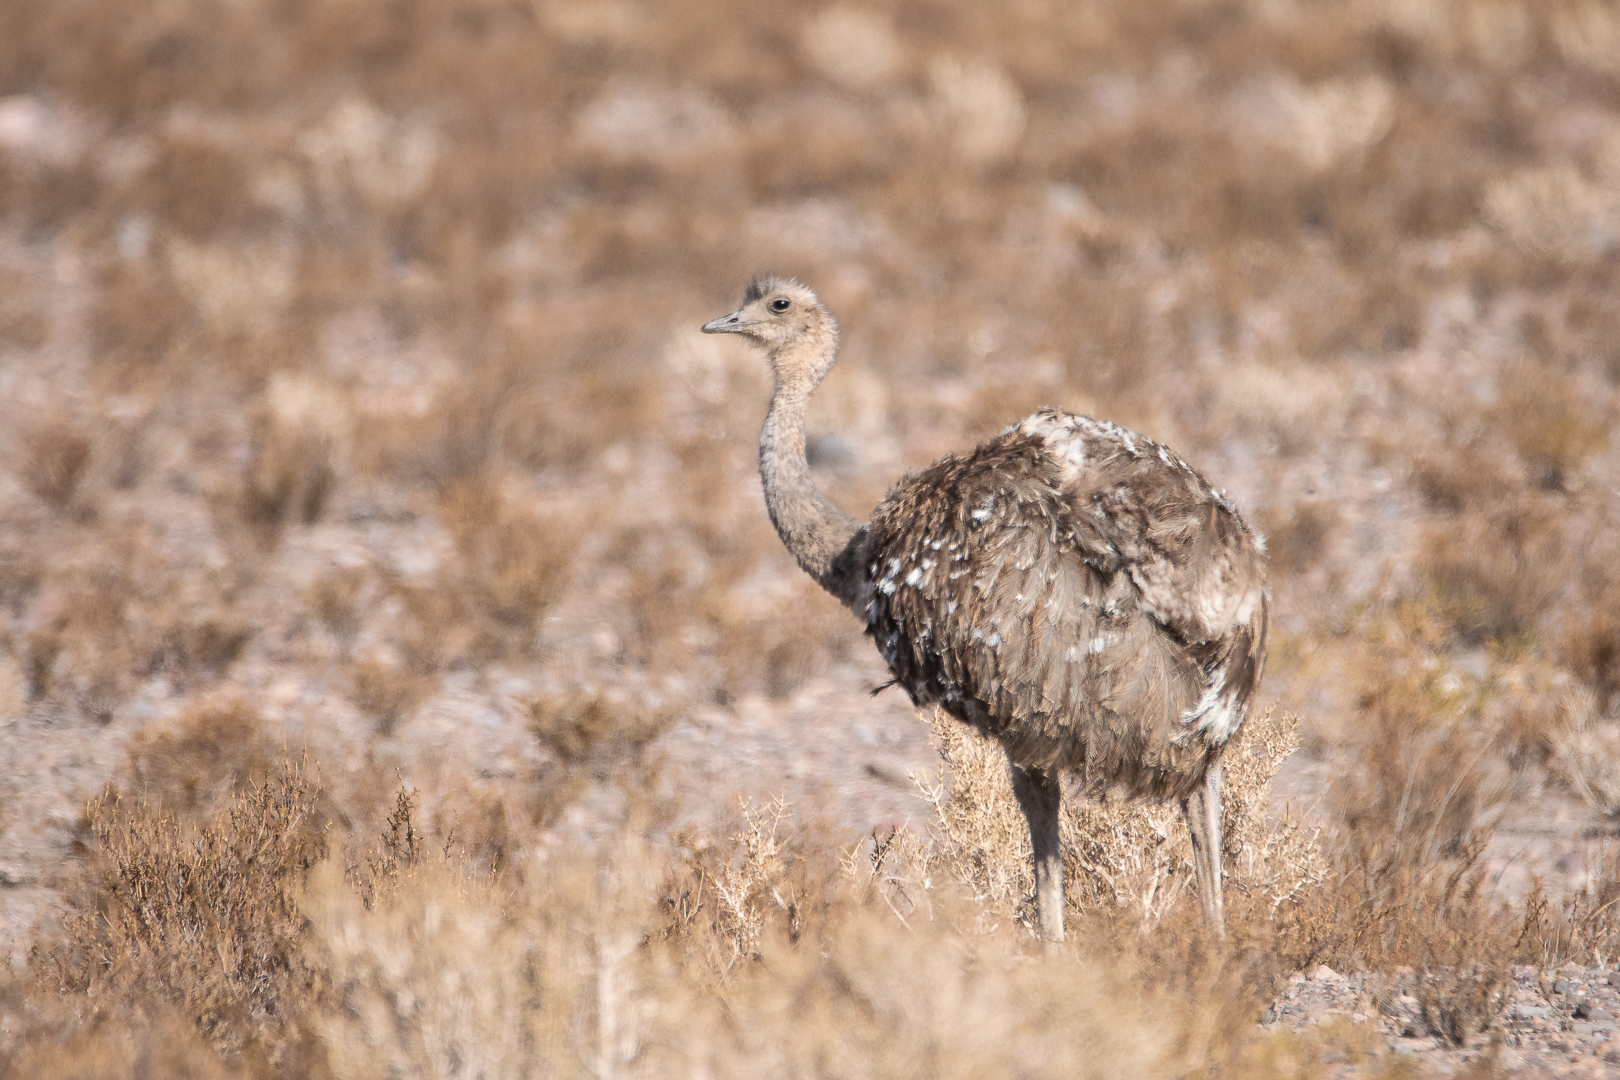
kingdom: Animalia
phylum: Chordata
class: Aves
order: Rheiformes
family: Rheidae
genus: Rhea
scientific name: Rhea pennata
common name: Lesser rhea
